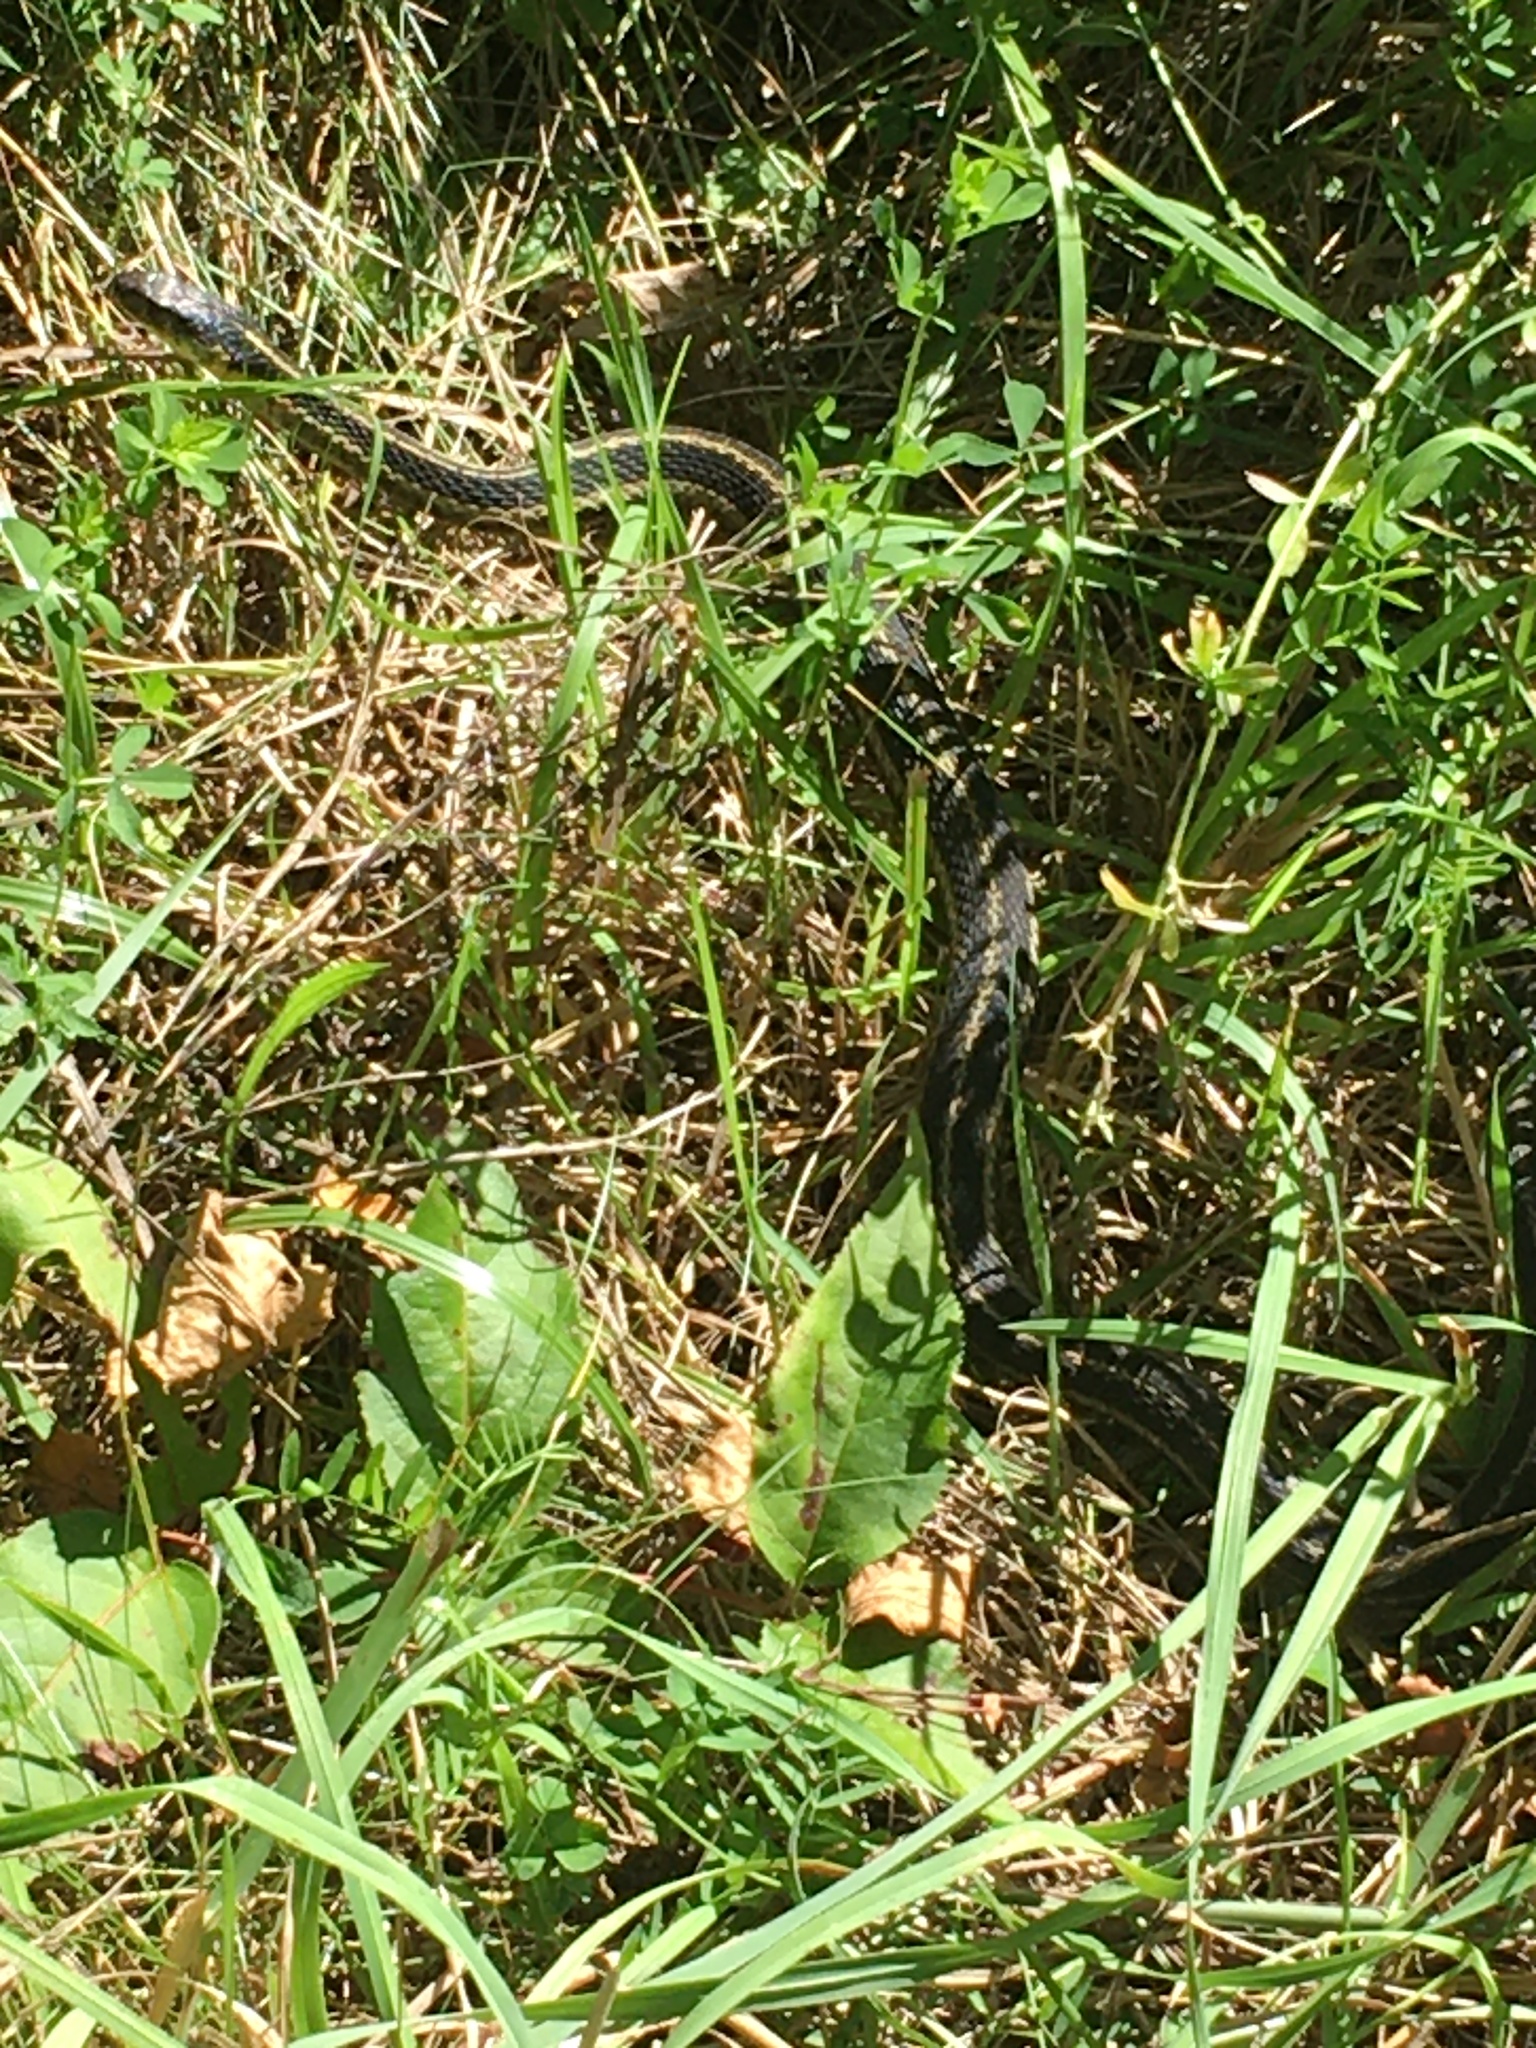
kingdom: Animalia
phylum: Chordata
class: Squamata
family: Colubridae
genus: Thamnophis
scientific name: Thamnophis sirtalis
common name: Common garter snake
